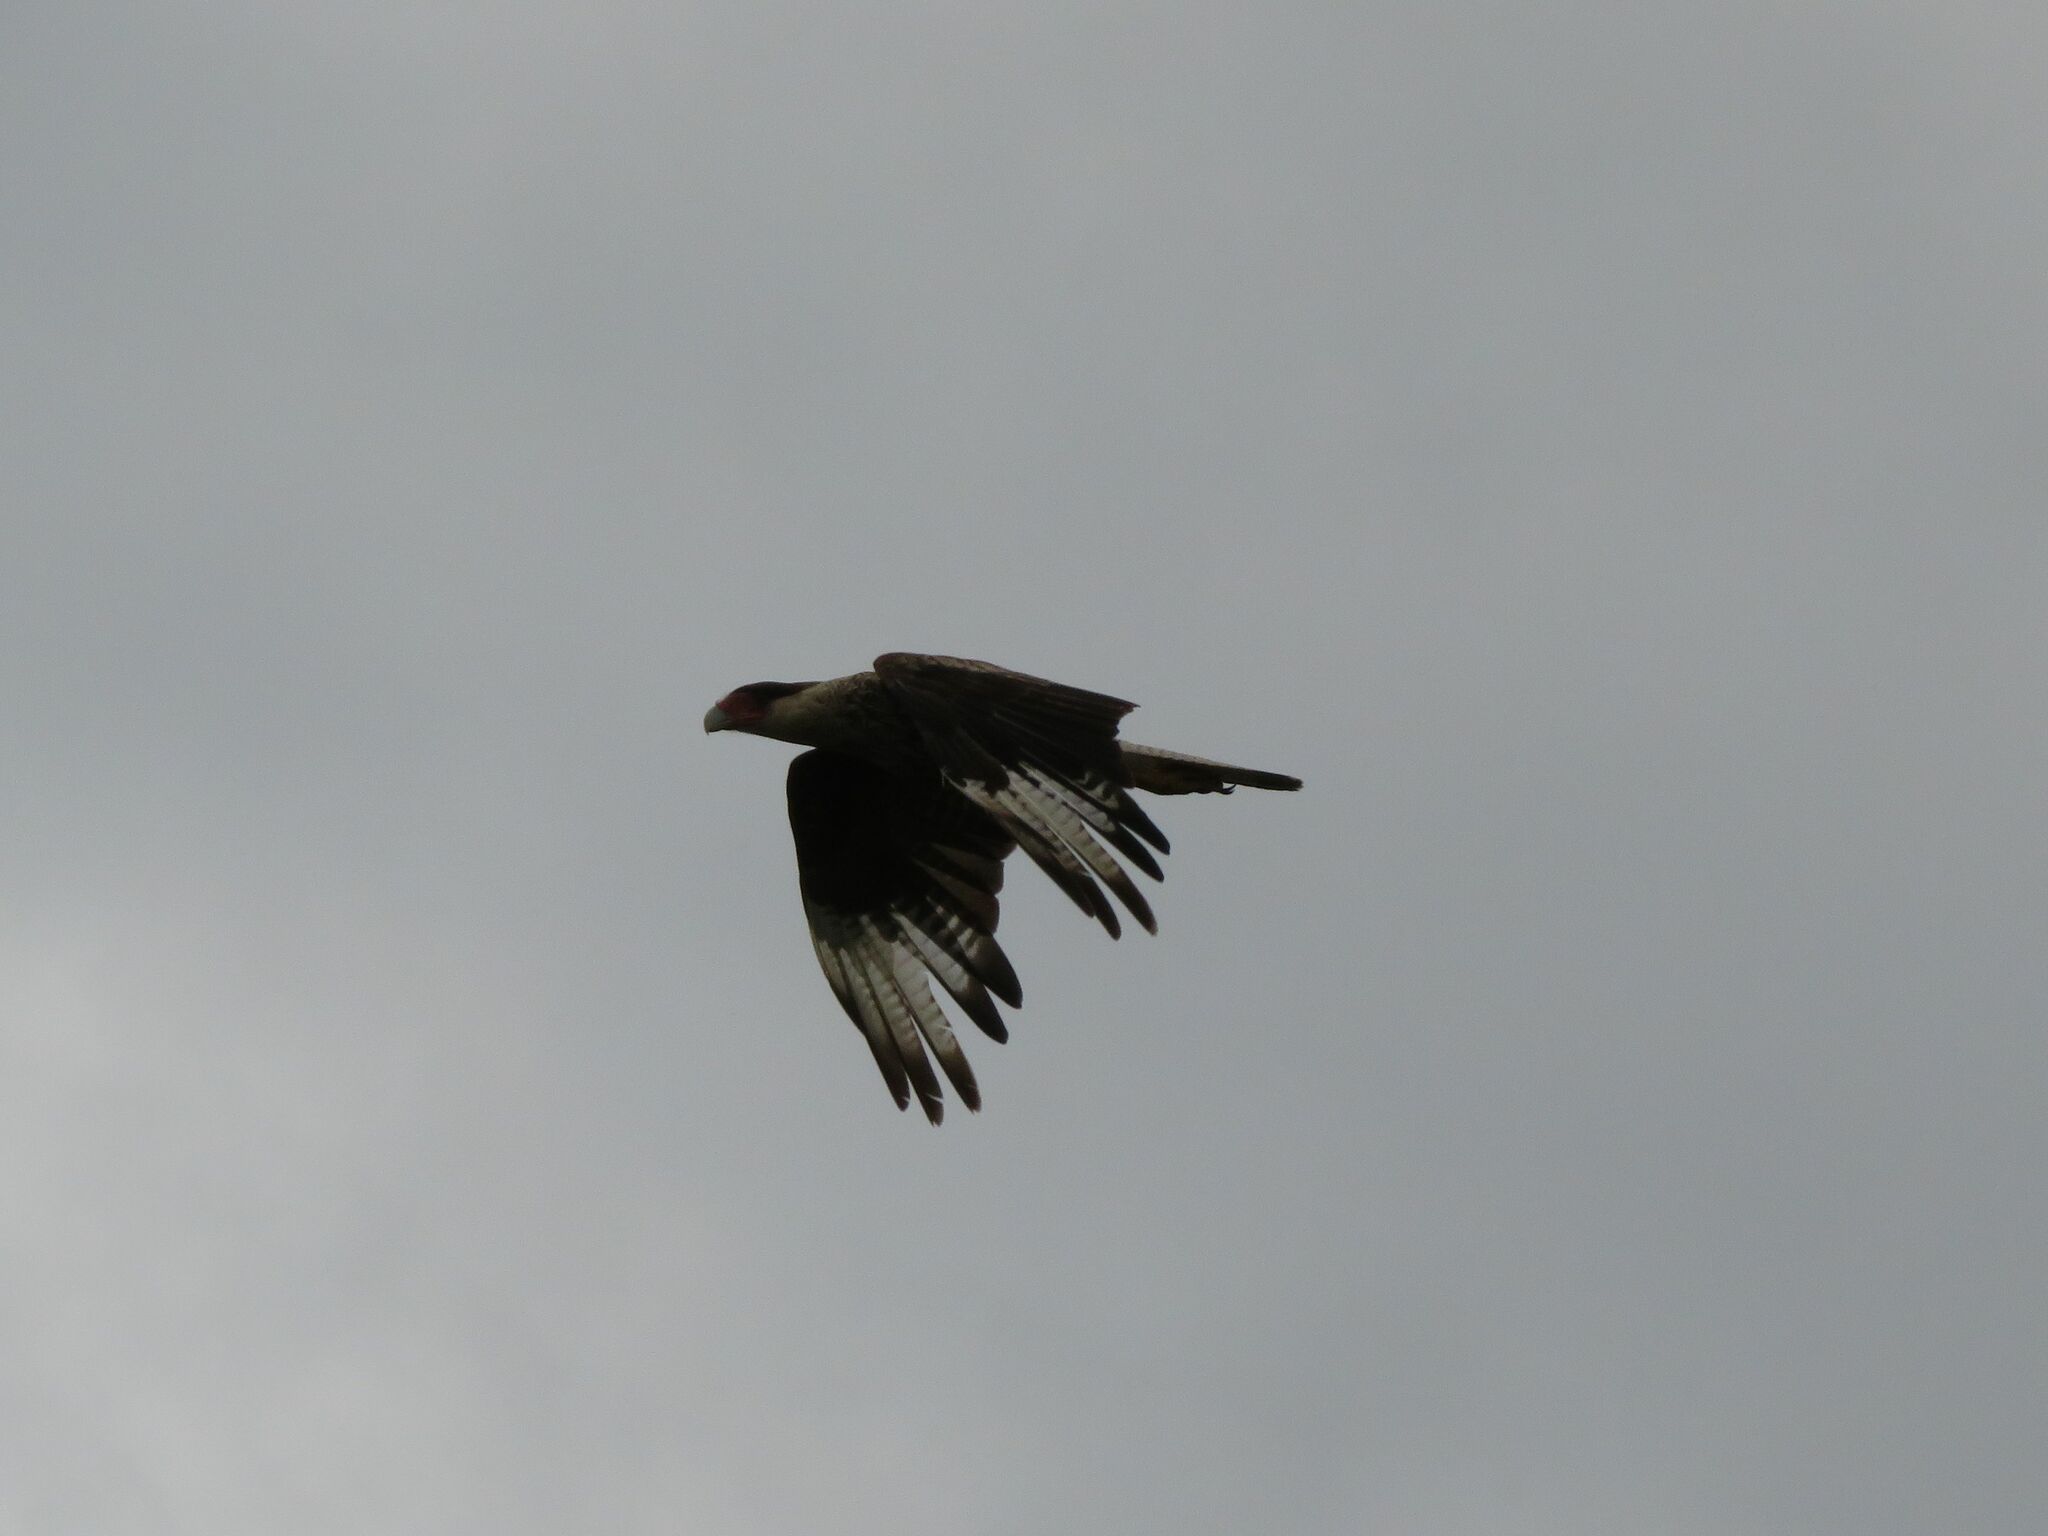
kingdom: Animalia
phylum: Chordata
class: Aves
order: Falconiformes
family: Falconidae
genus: Caracara
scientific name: Caracara plancus
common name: Southern caracara
